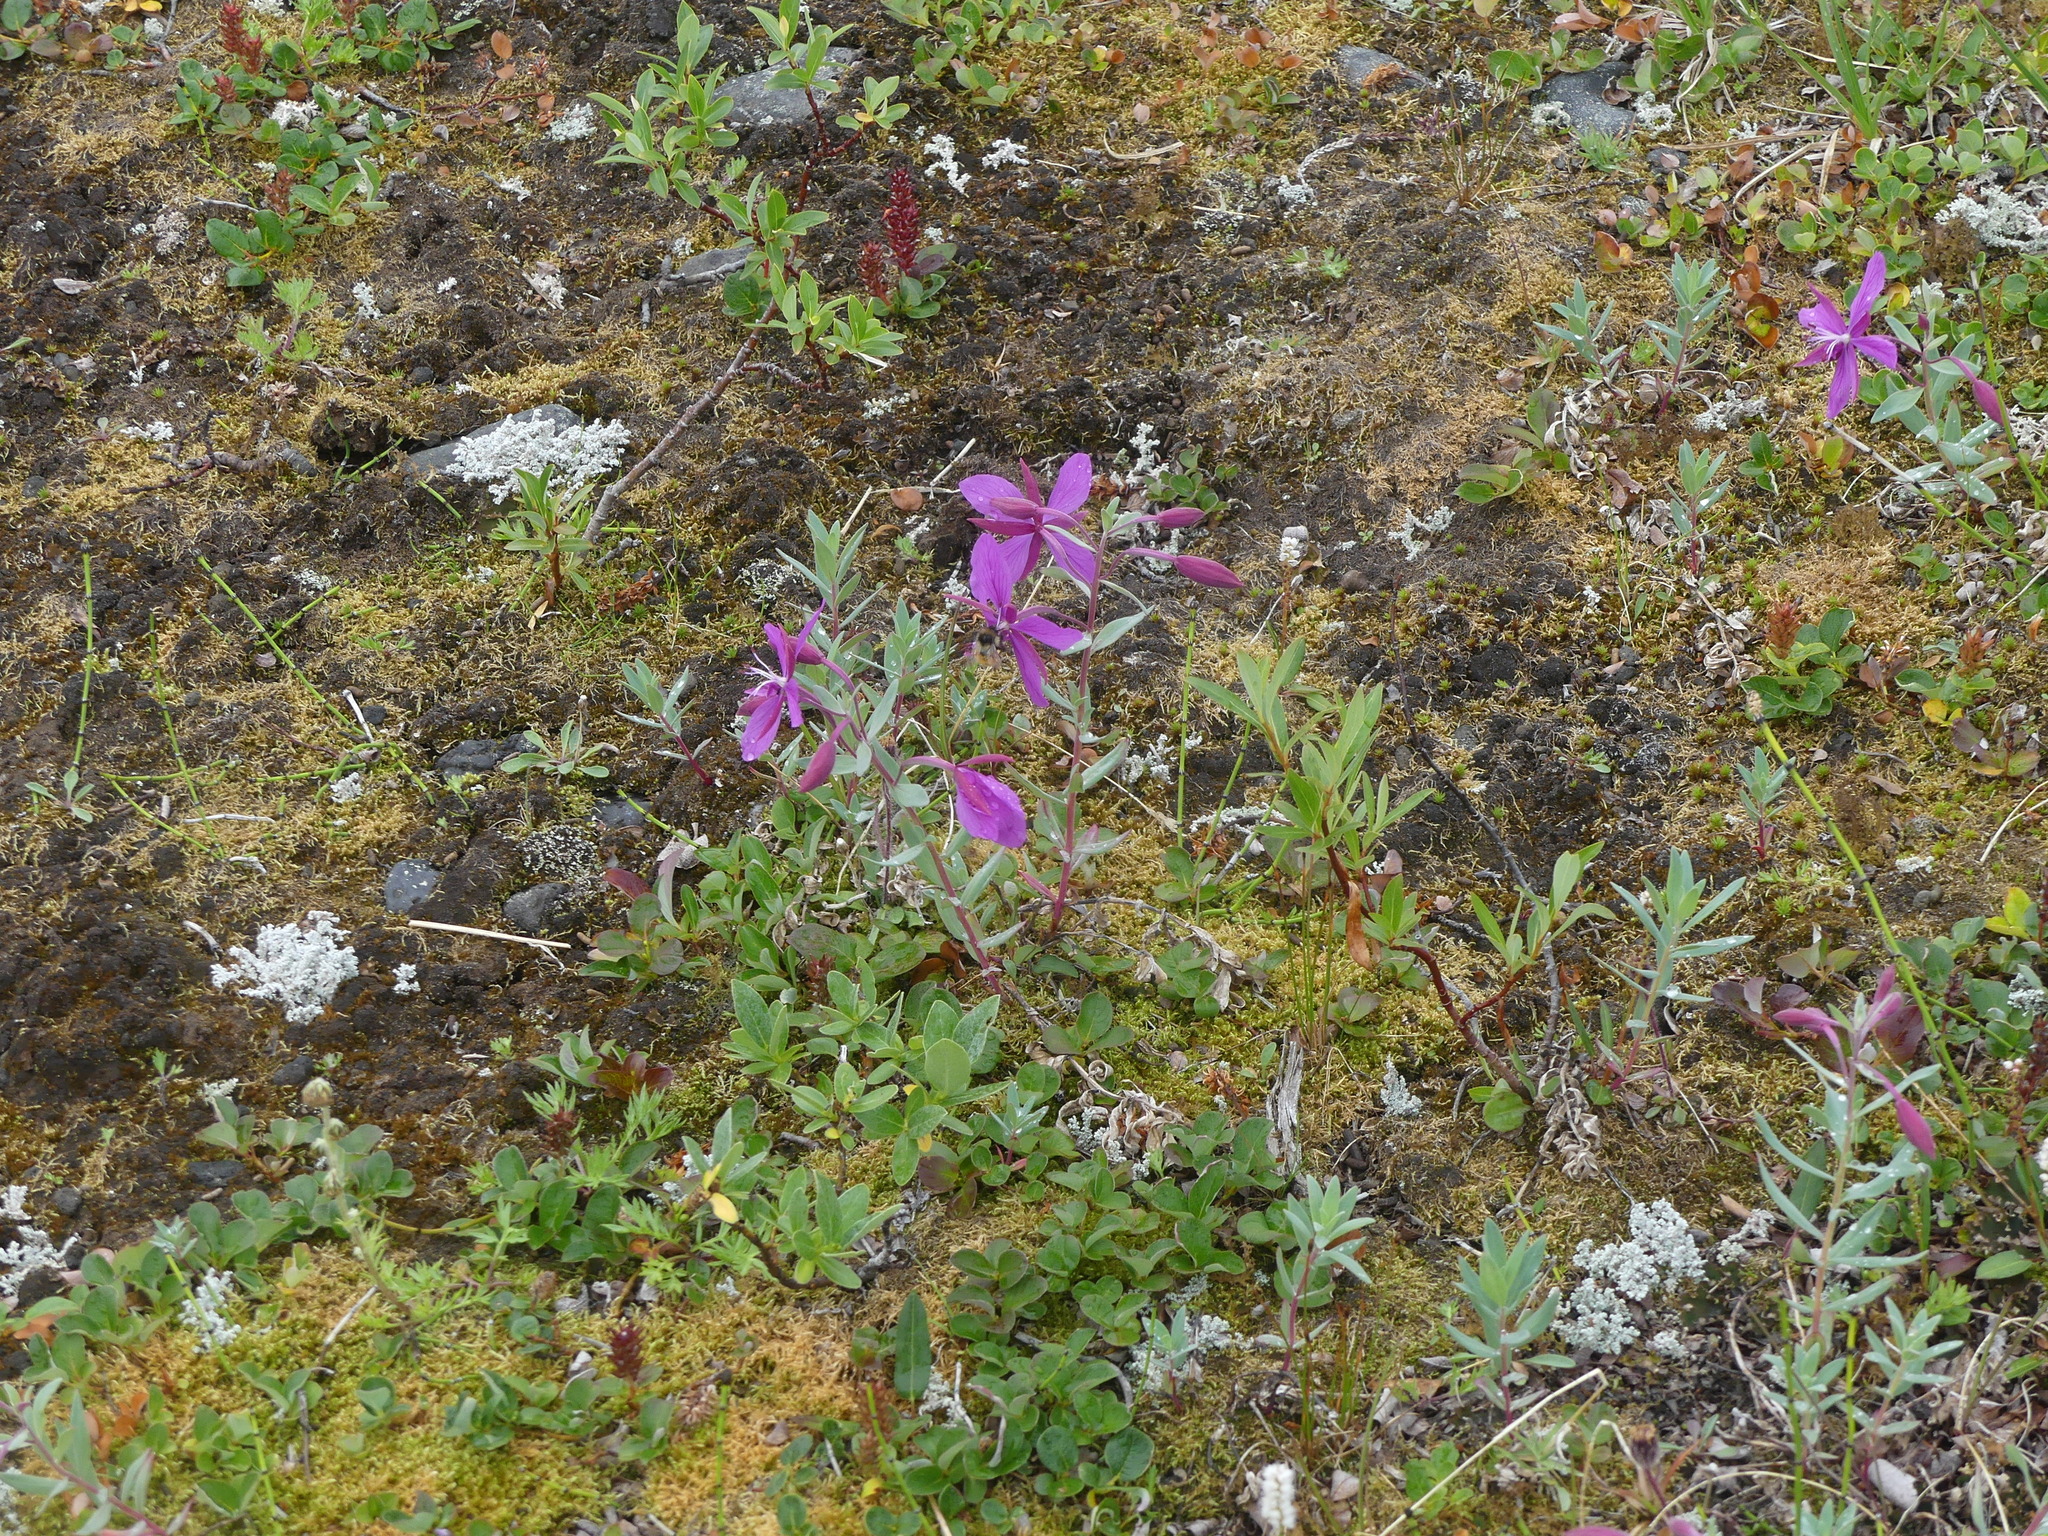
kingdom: Plantae
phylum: Tracheophyta
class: Magnoliopsida
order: Myrtales
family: Onagraceae
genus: Chamaenerion
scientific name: Chamaenerion latifolium
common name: Dwarf fireweed
